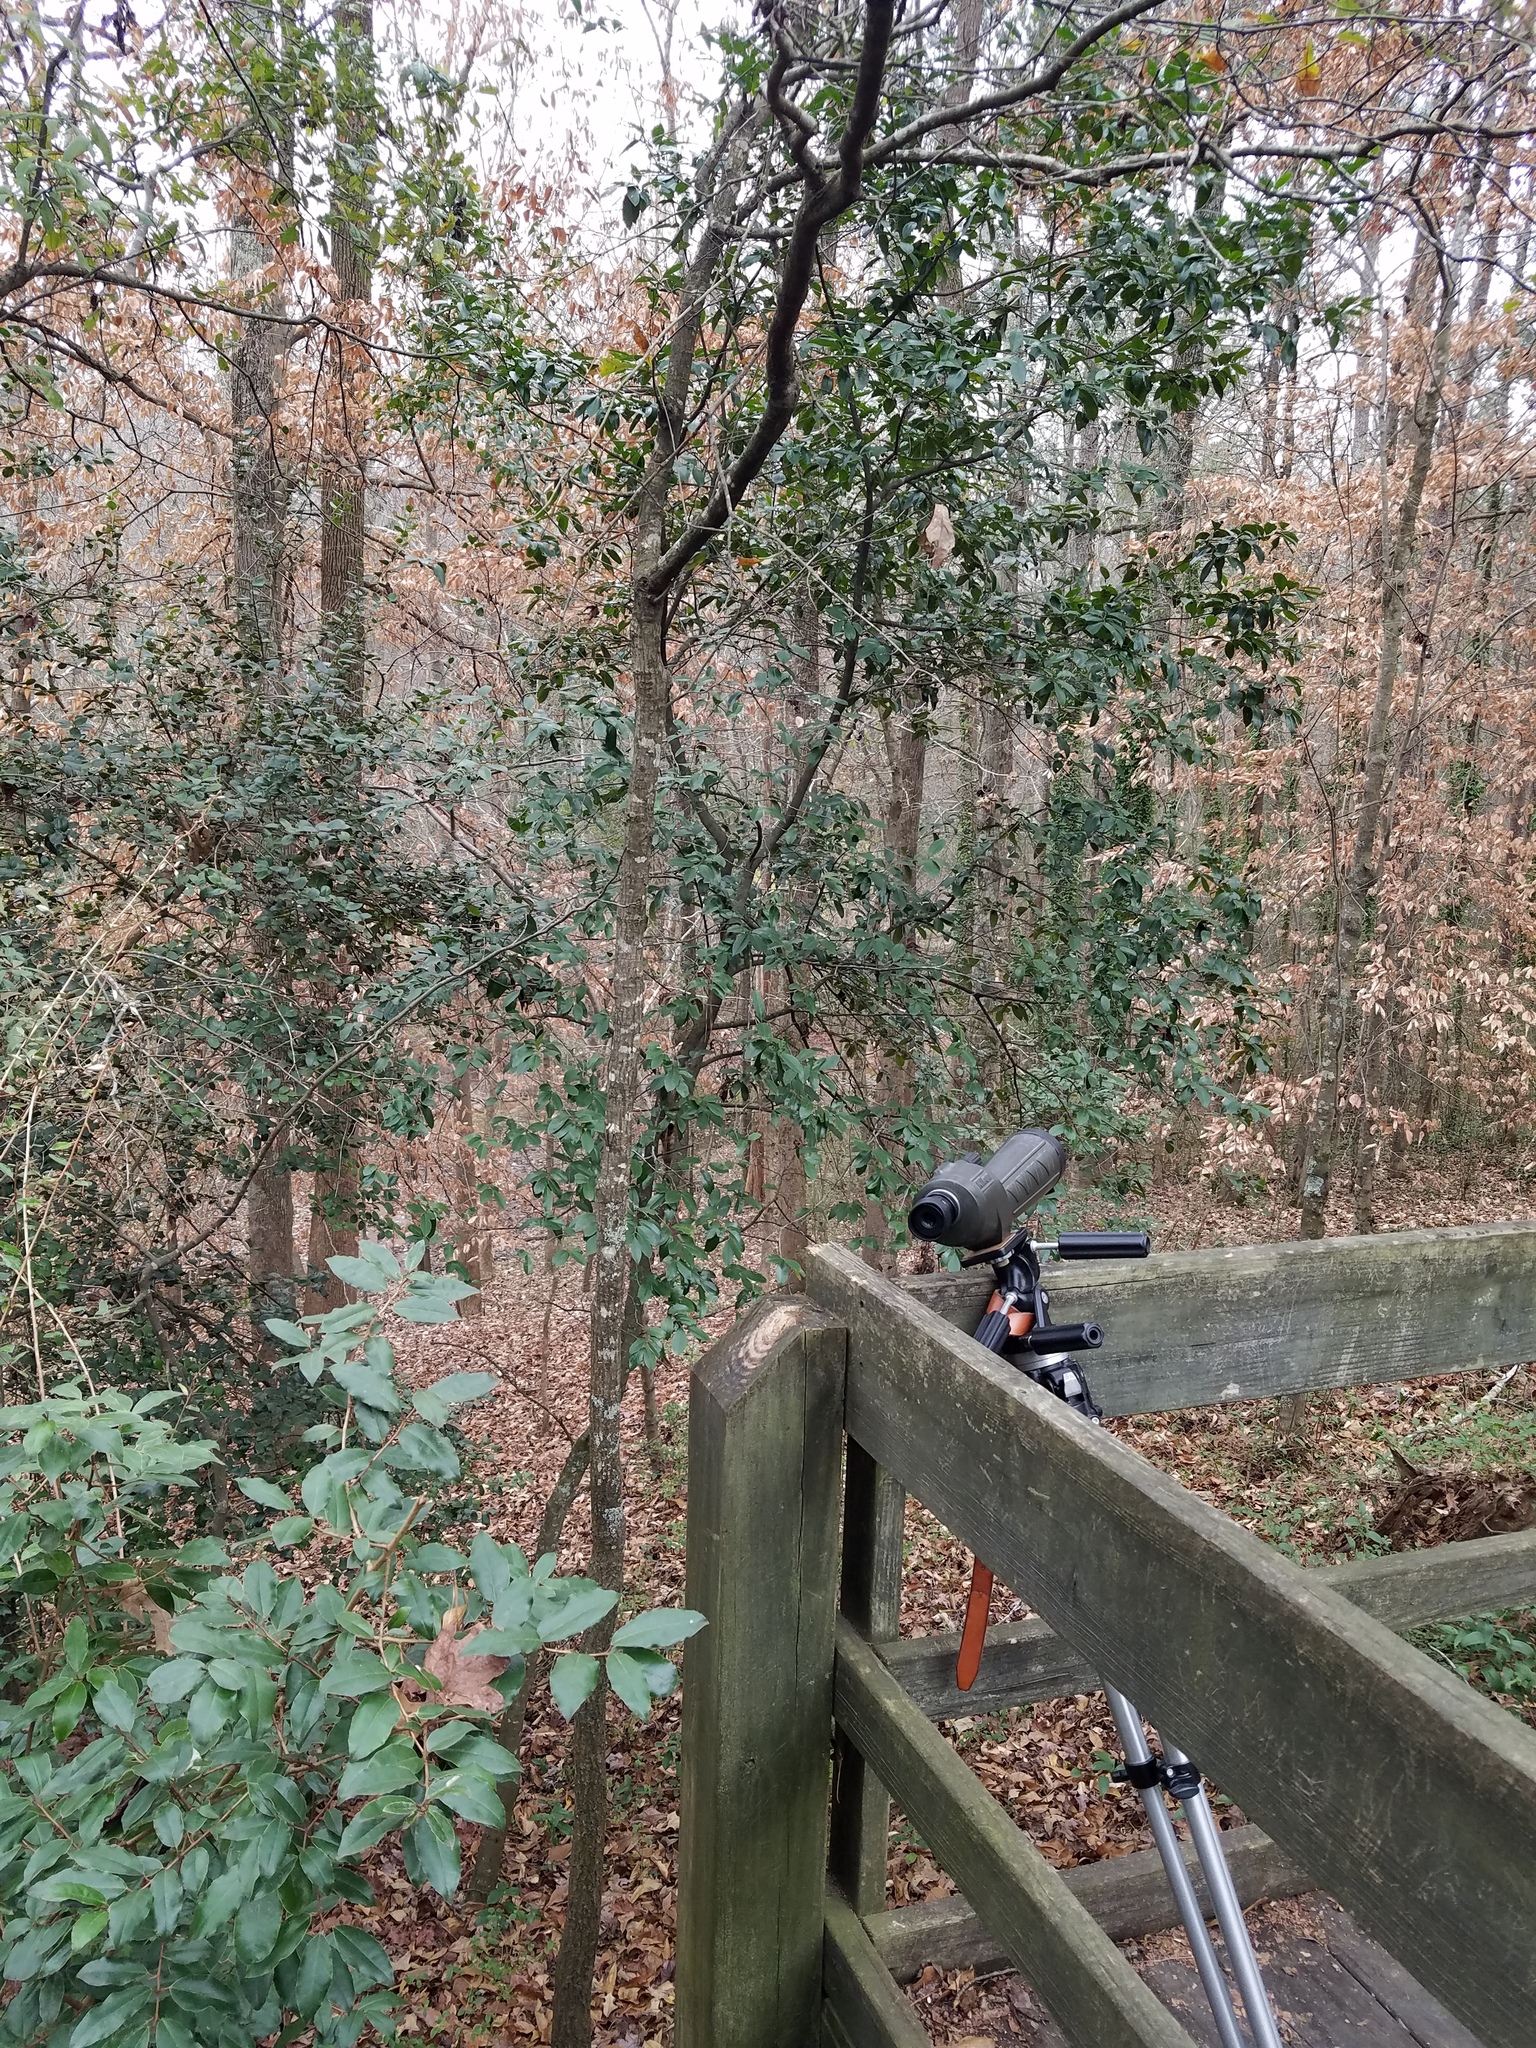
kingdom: Plantae
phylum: Tracheophyta
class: Magnoliopsida
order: Rosales
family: Rosaceae
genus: Prunus
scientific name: Prunus caroliniana
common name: Carolina laurel cherry
